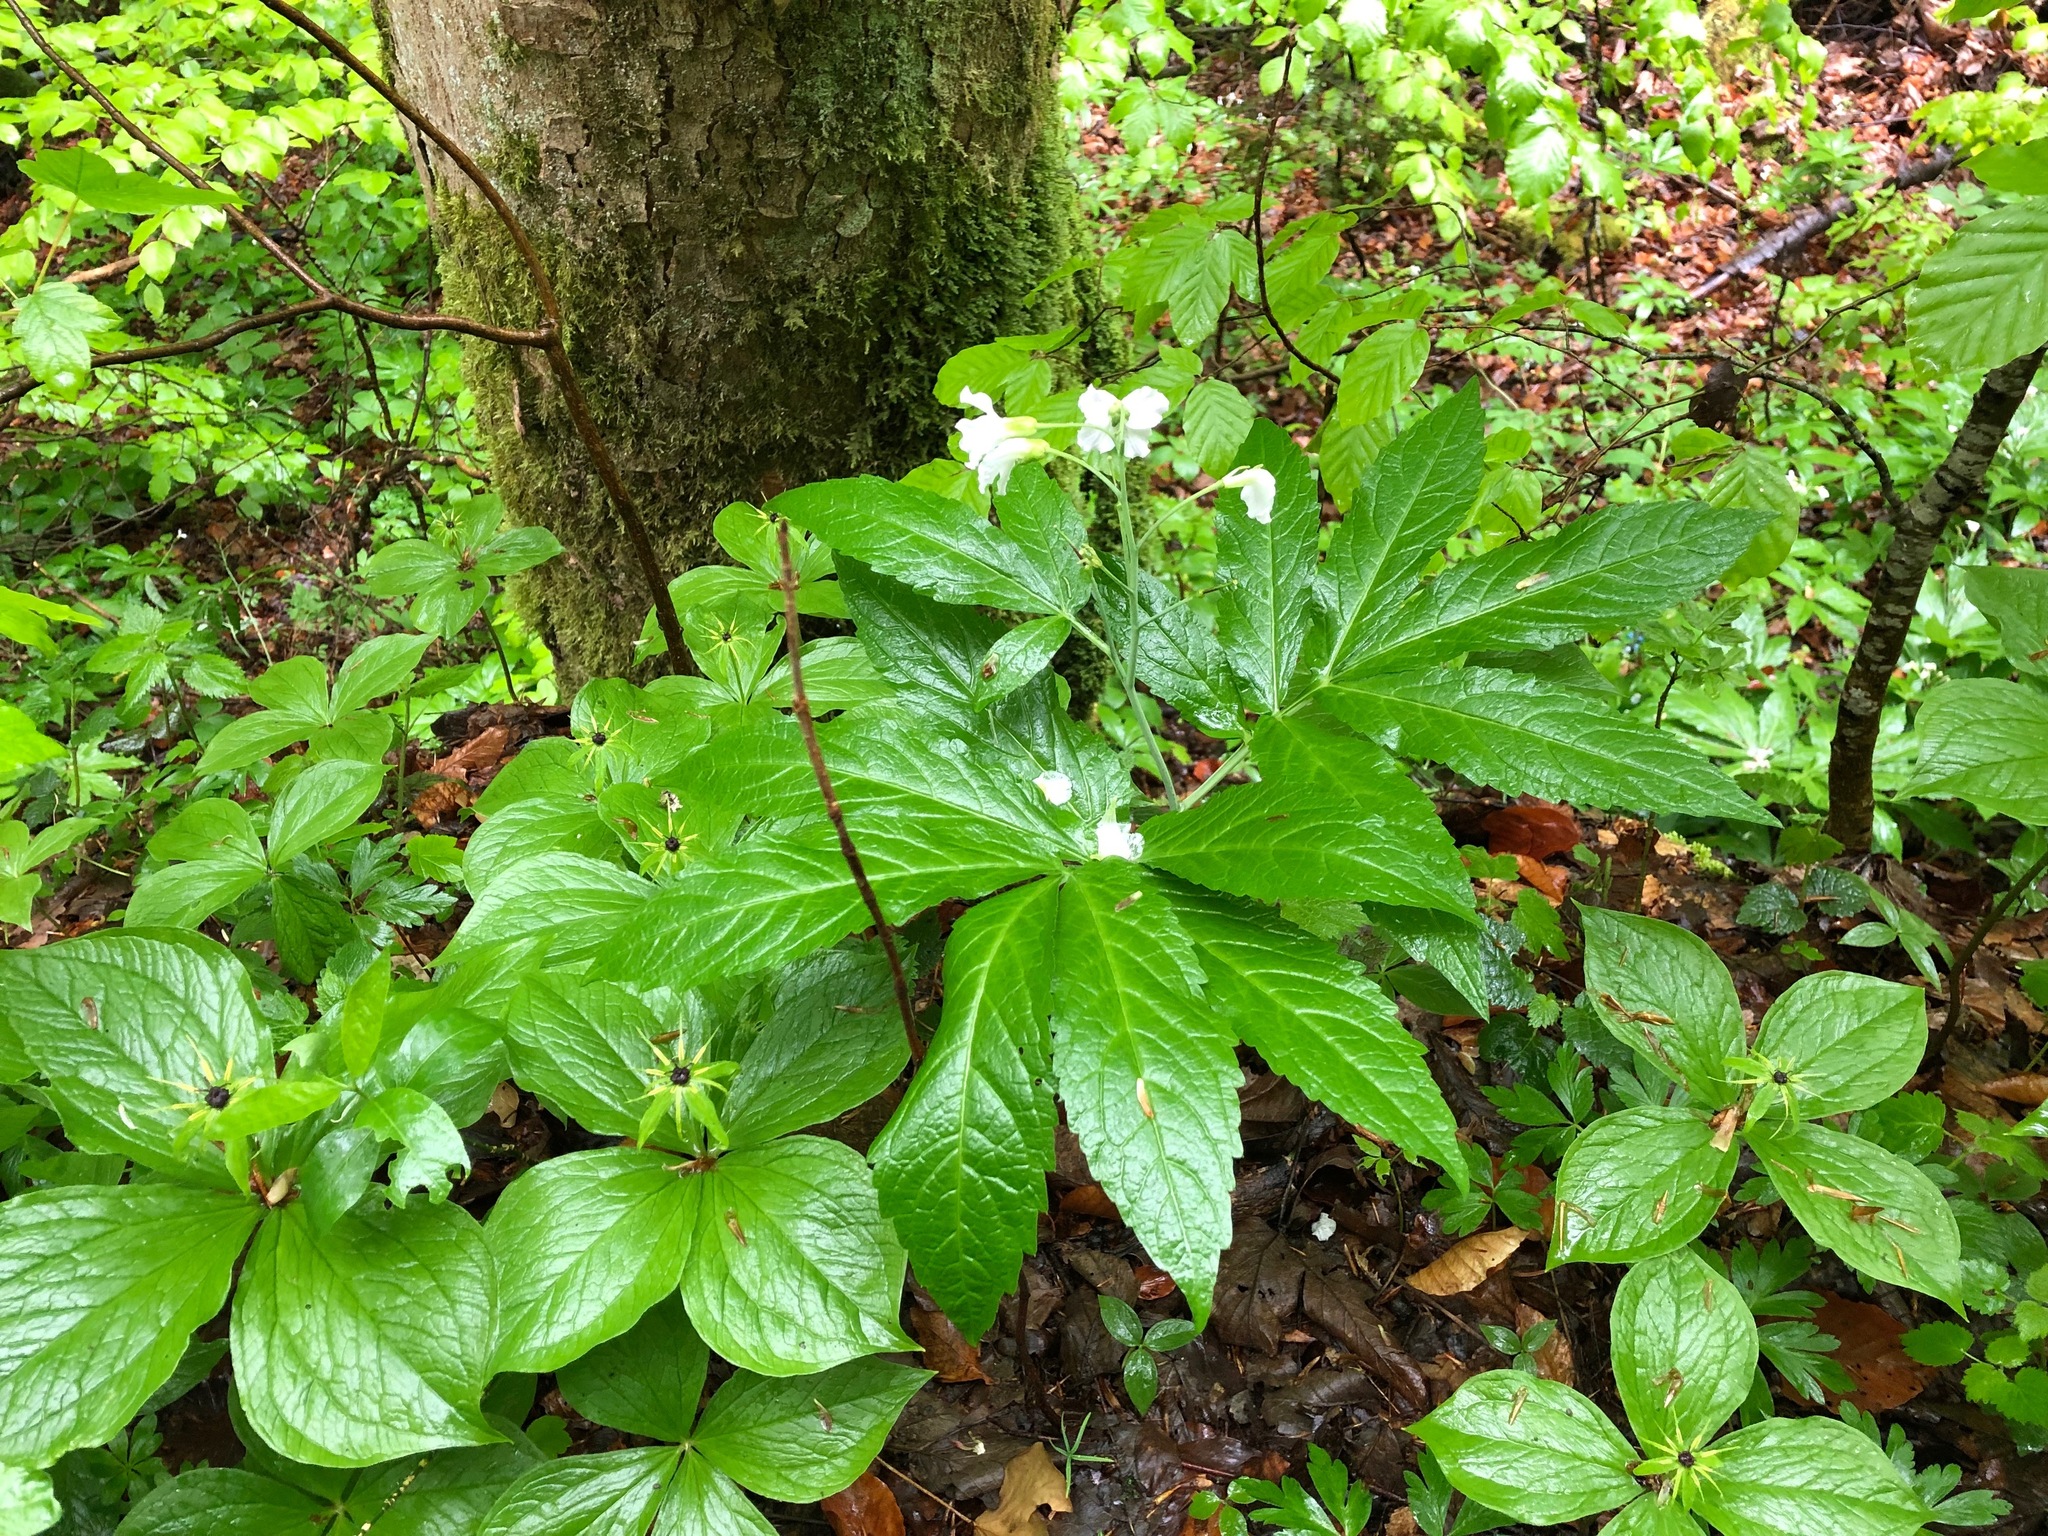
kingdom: Plantae
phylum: Tracheophyta
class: Magnoliopsida
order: Brassicales
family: Brassicaceae
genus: Cardamine
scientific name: Cardamine heptaphylla
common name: Pinnate coralroot
